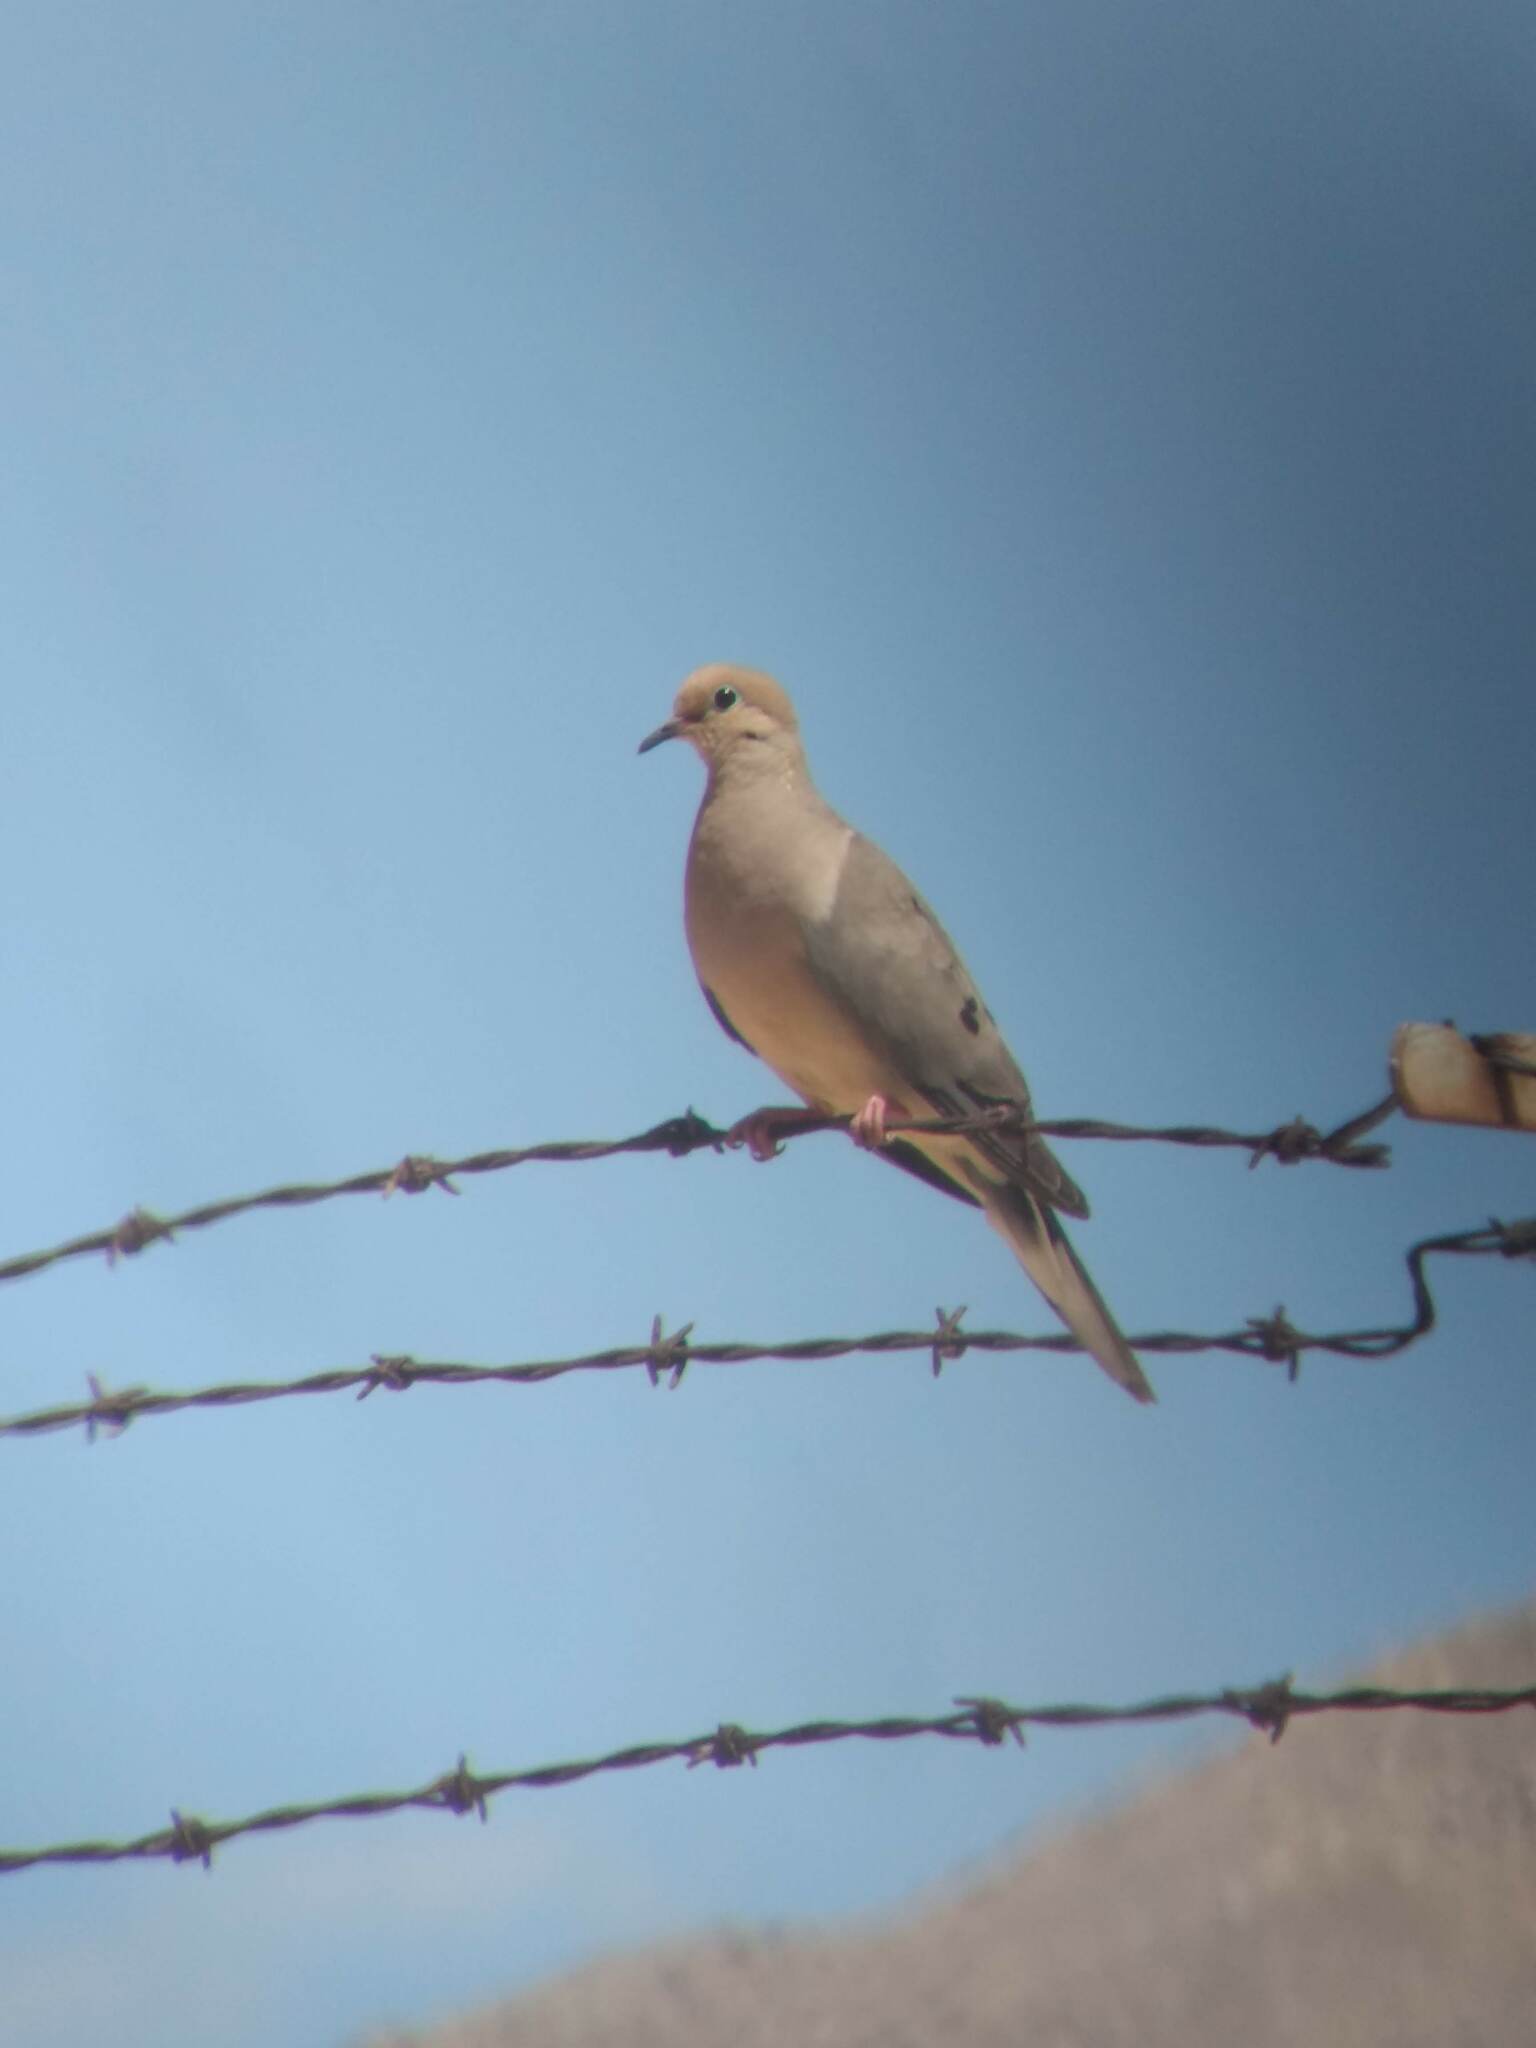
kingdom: Animalia
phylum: Chordata
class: Aves
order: Columbiformes
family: Columbidae
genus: Zenaida
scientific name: Zenaida macroura
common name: Mourning dove
